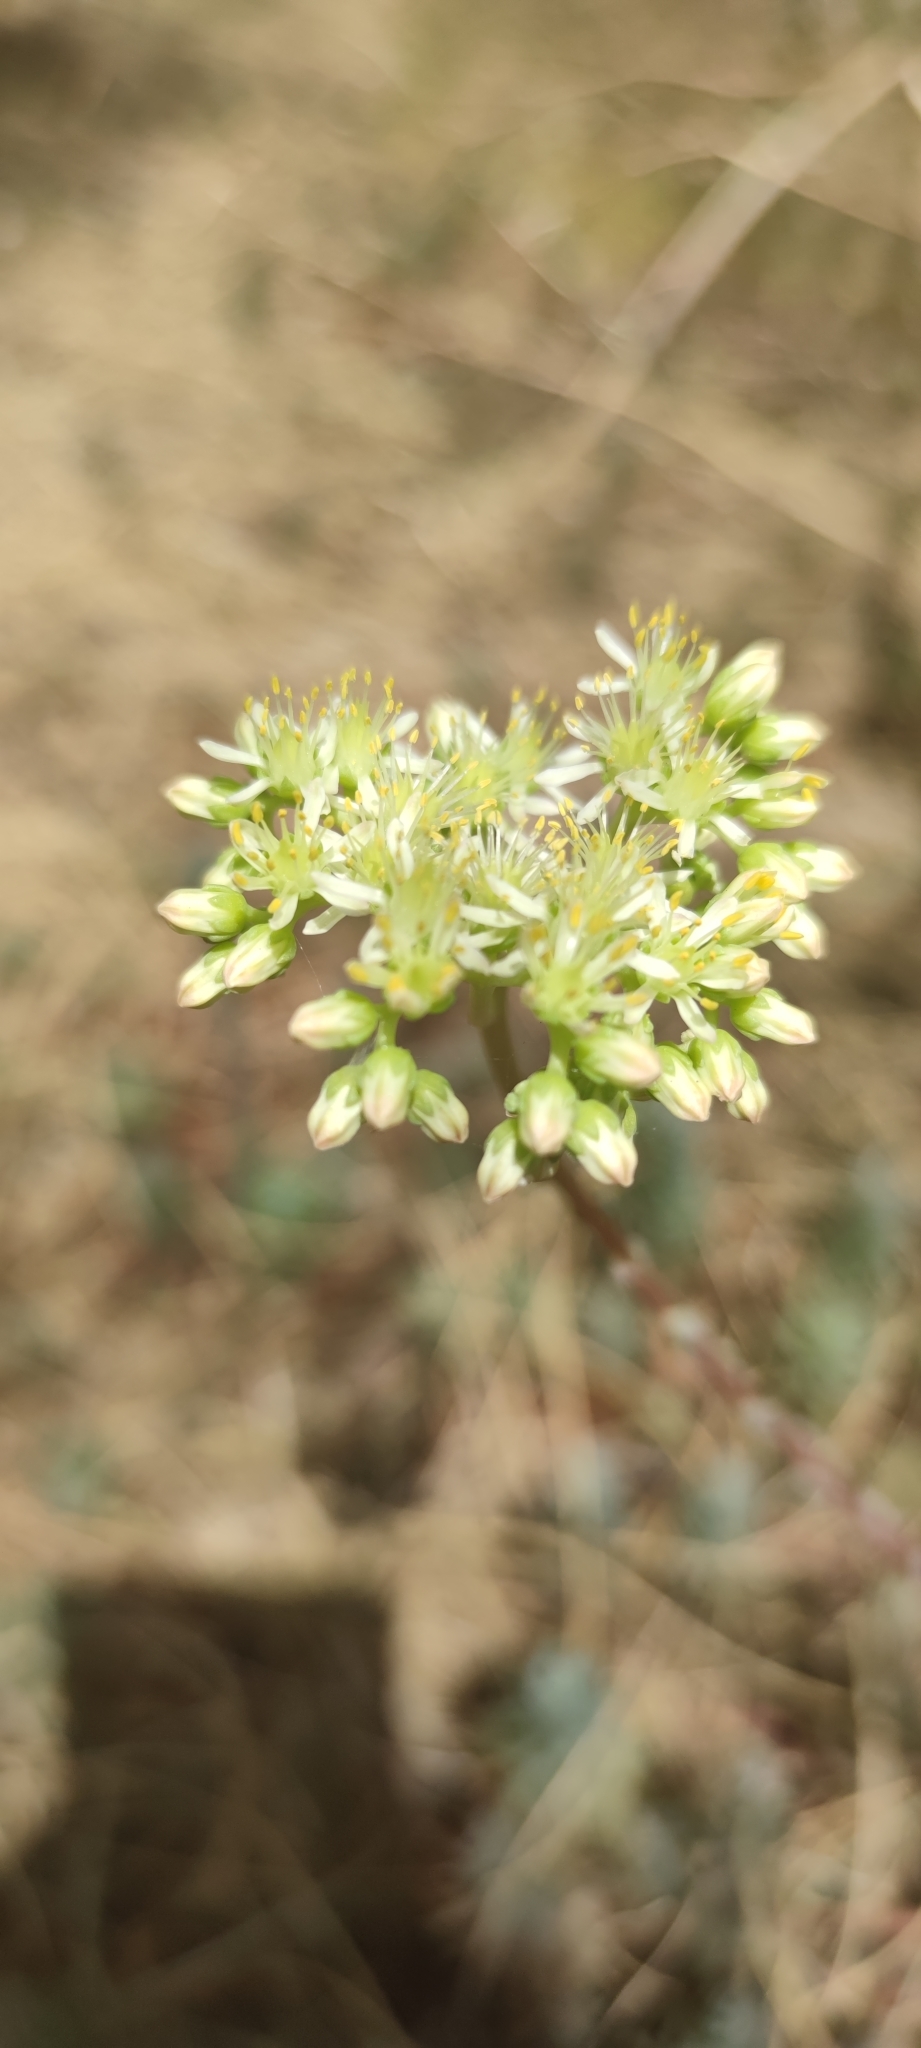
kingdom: Plantae
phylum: Tracheophyta
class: Magnoliopsida
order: Saxifragales
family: Crassulaceae
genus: Petrosedum
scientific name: Petrosedum sediforme
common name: Pale stonecrop
